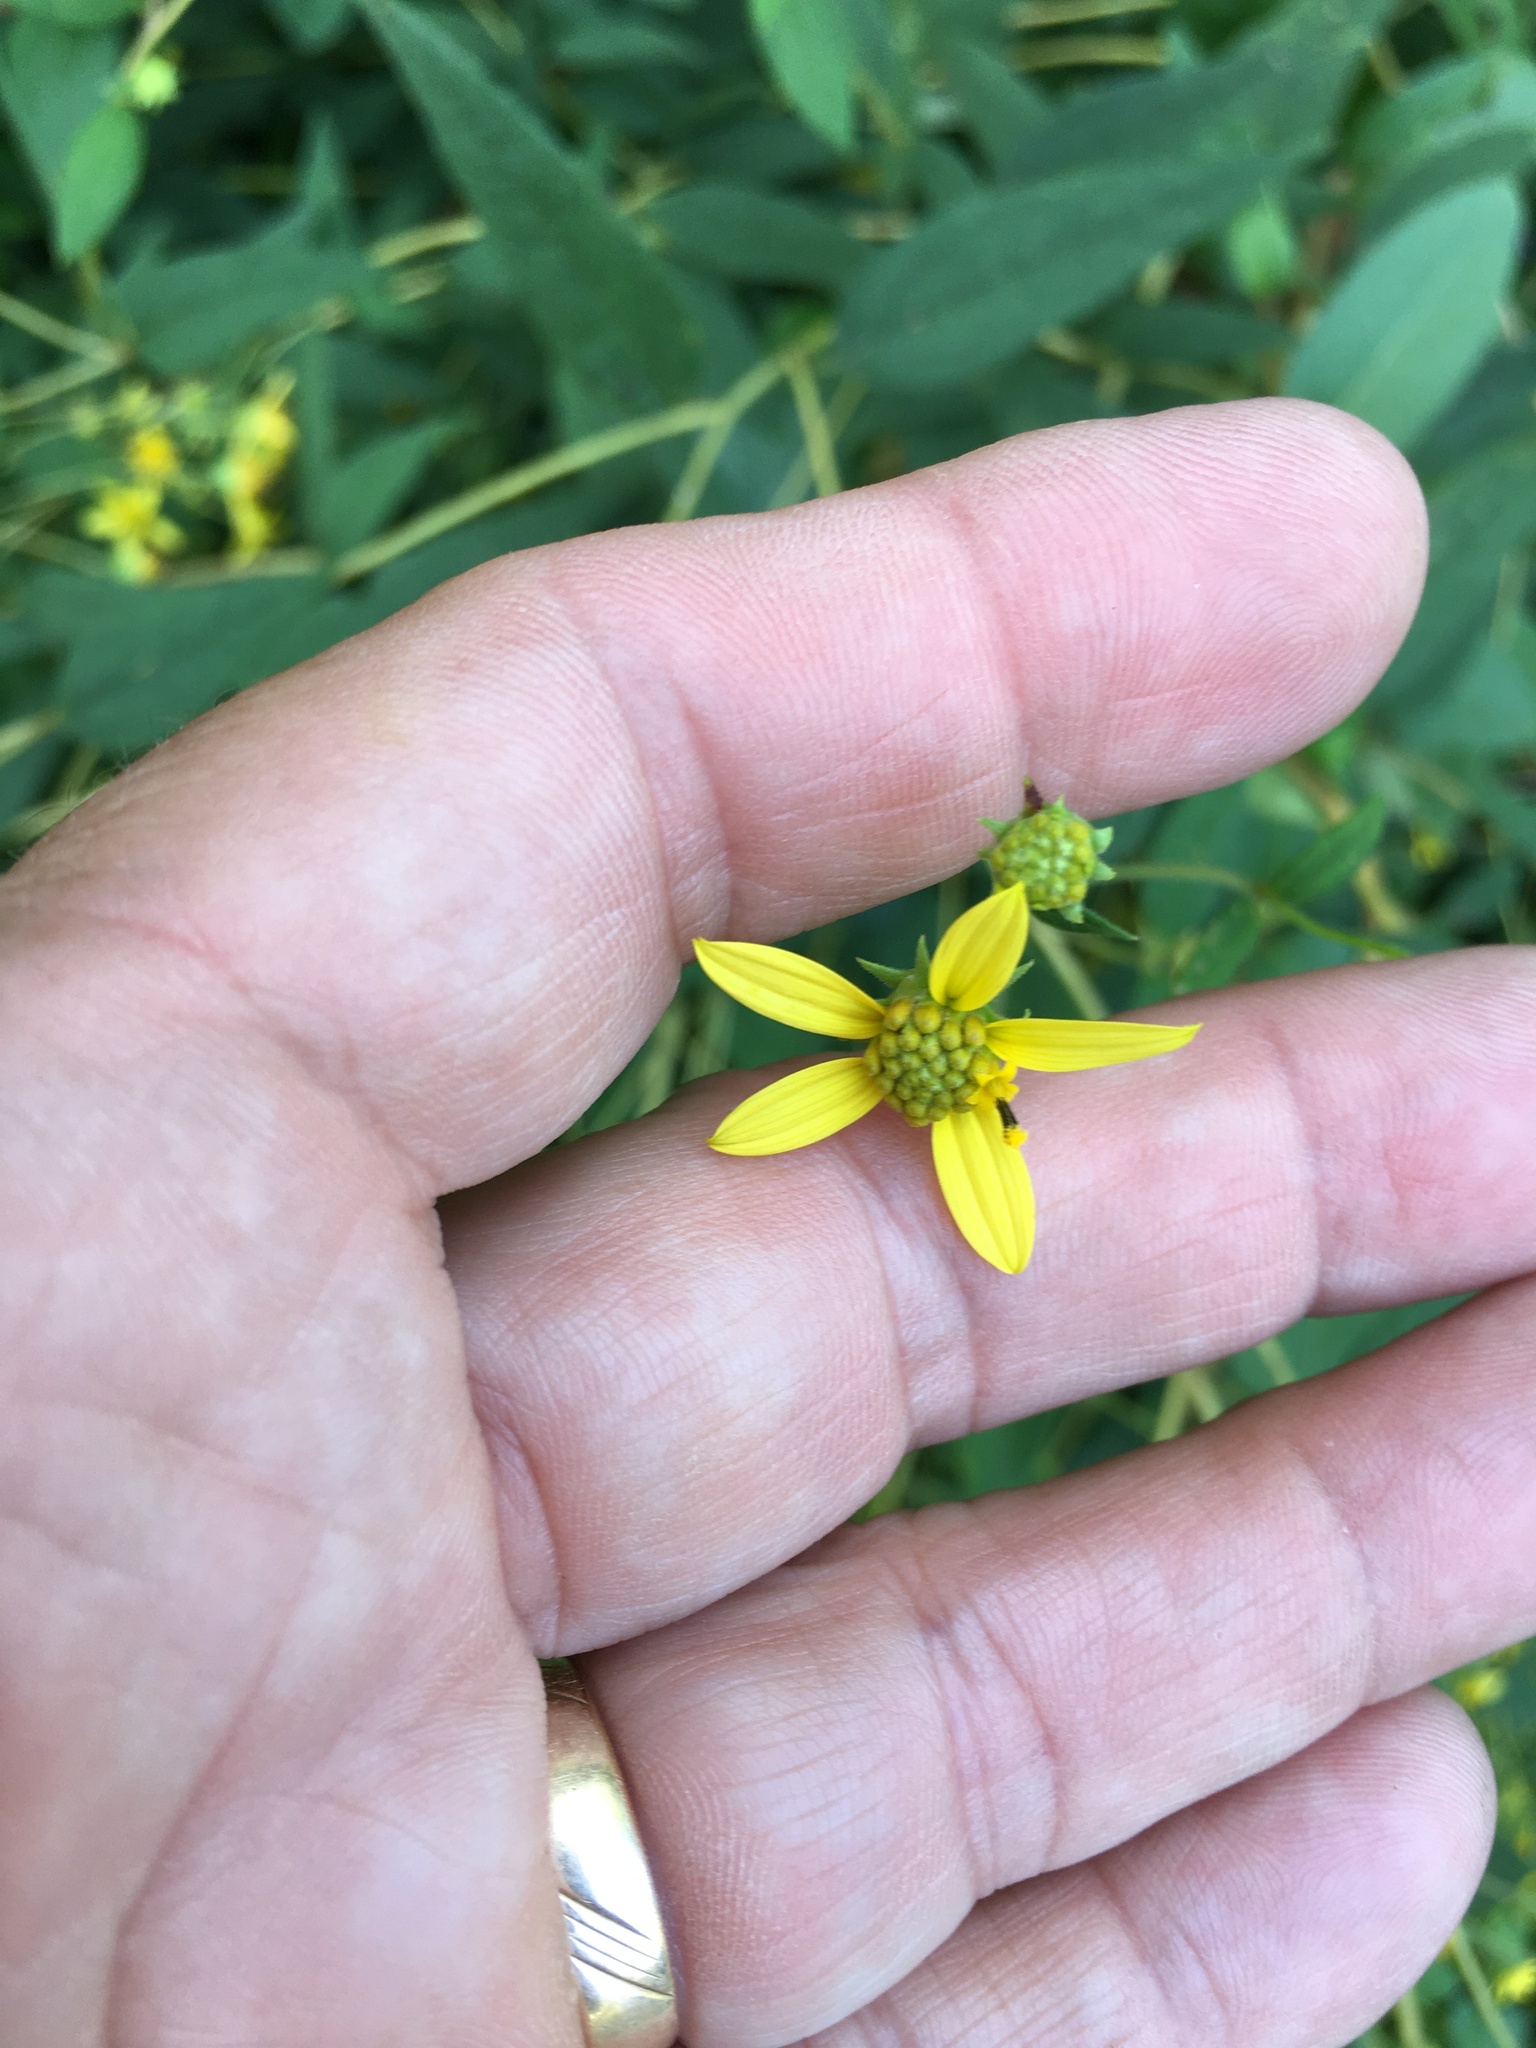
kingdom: Plantae
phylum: Tracheophyta
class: Magnoliopsida
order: Asterales
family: Asteraceae
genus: Helianthus
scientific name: Helianthus microcephalus
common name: Woodland sunflower
